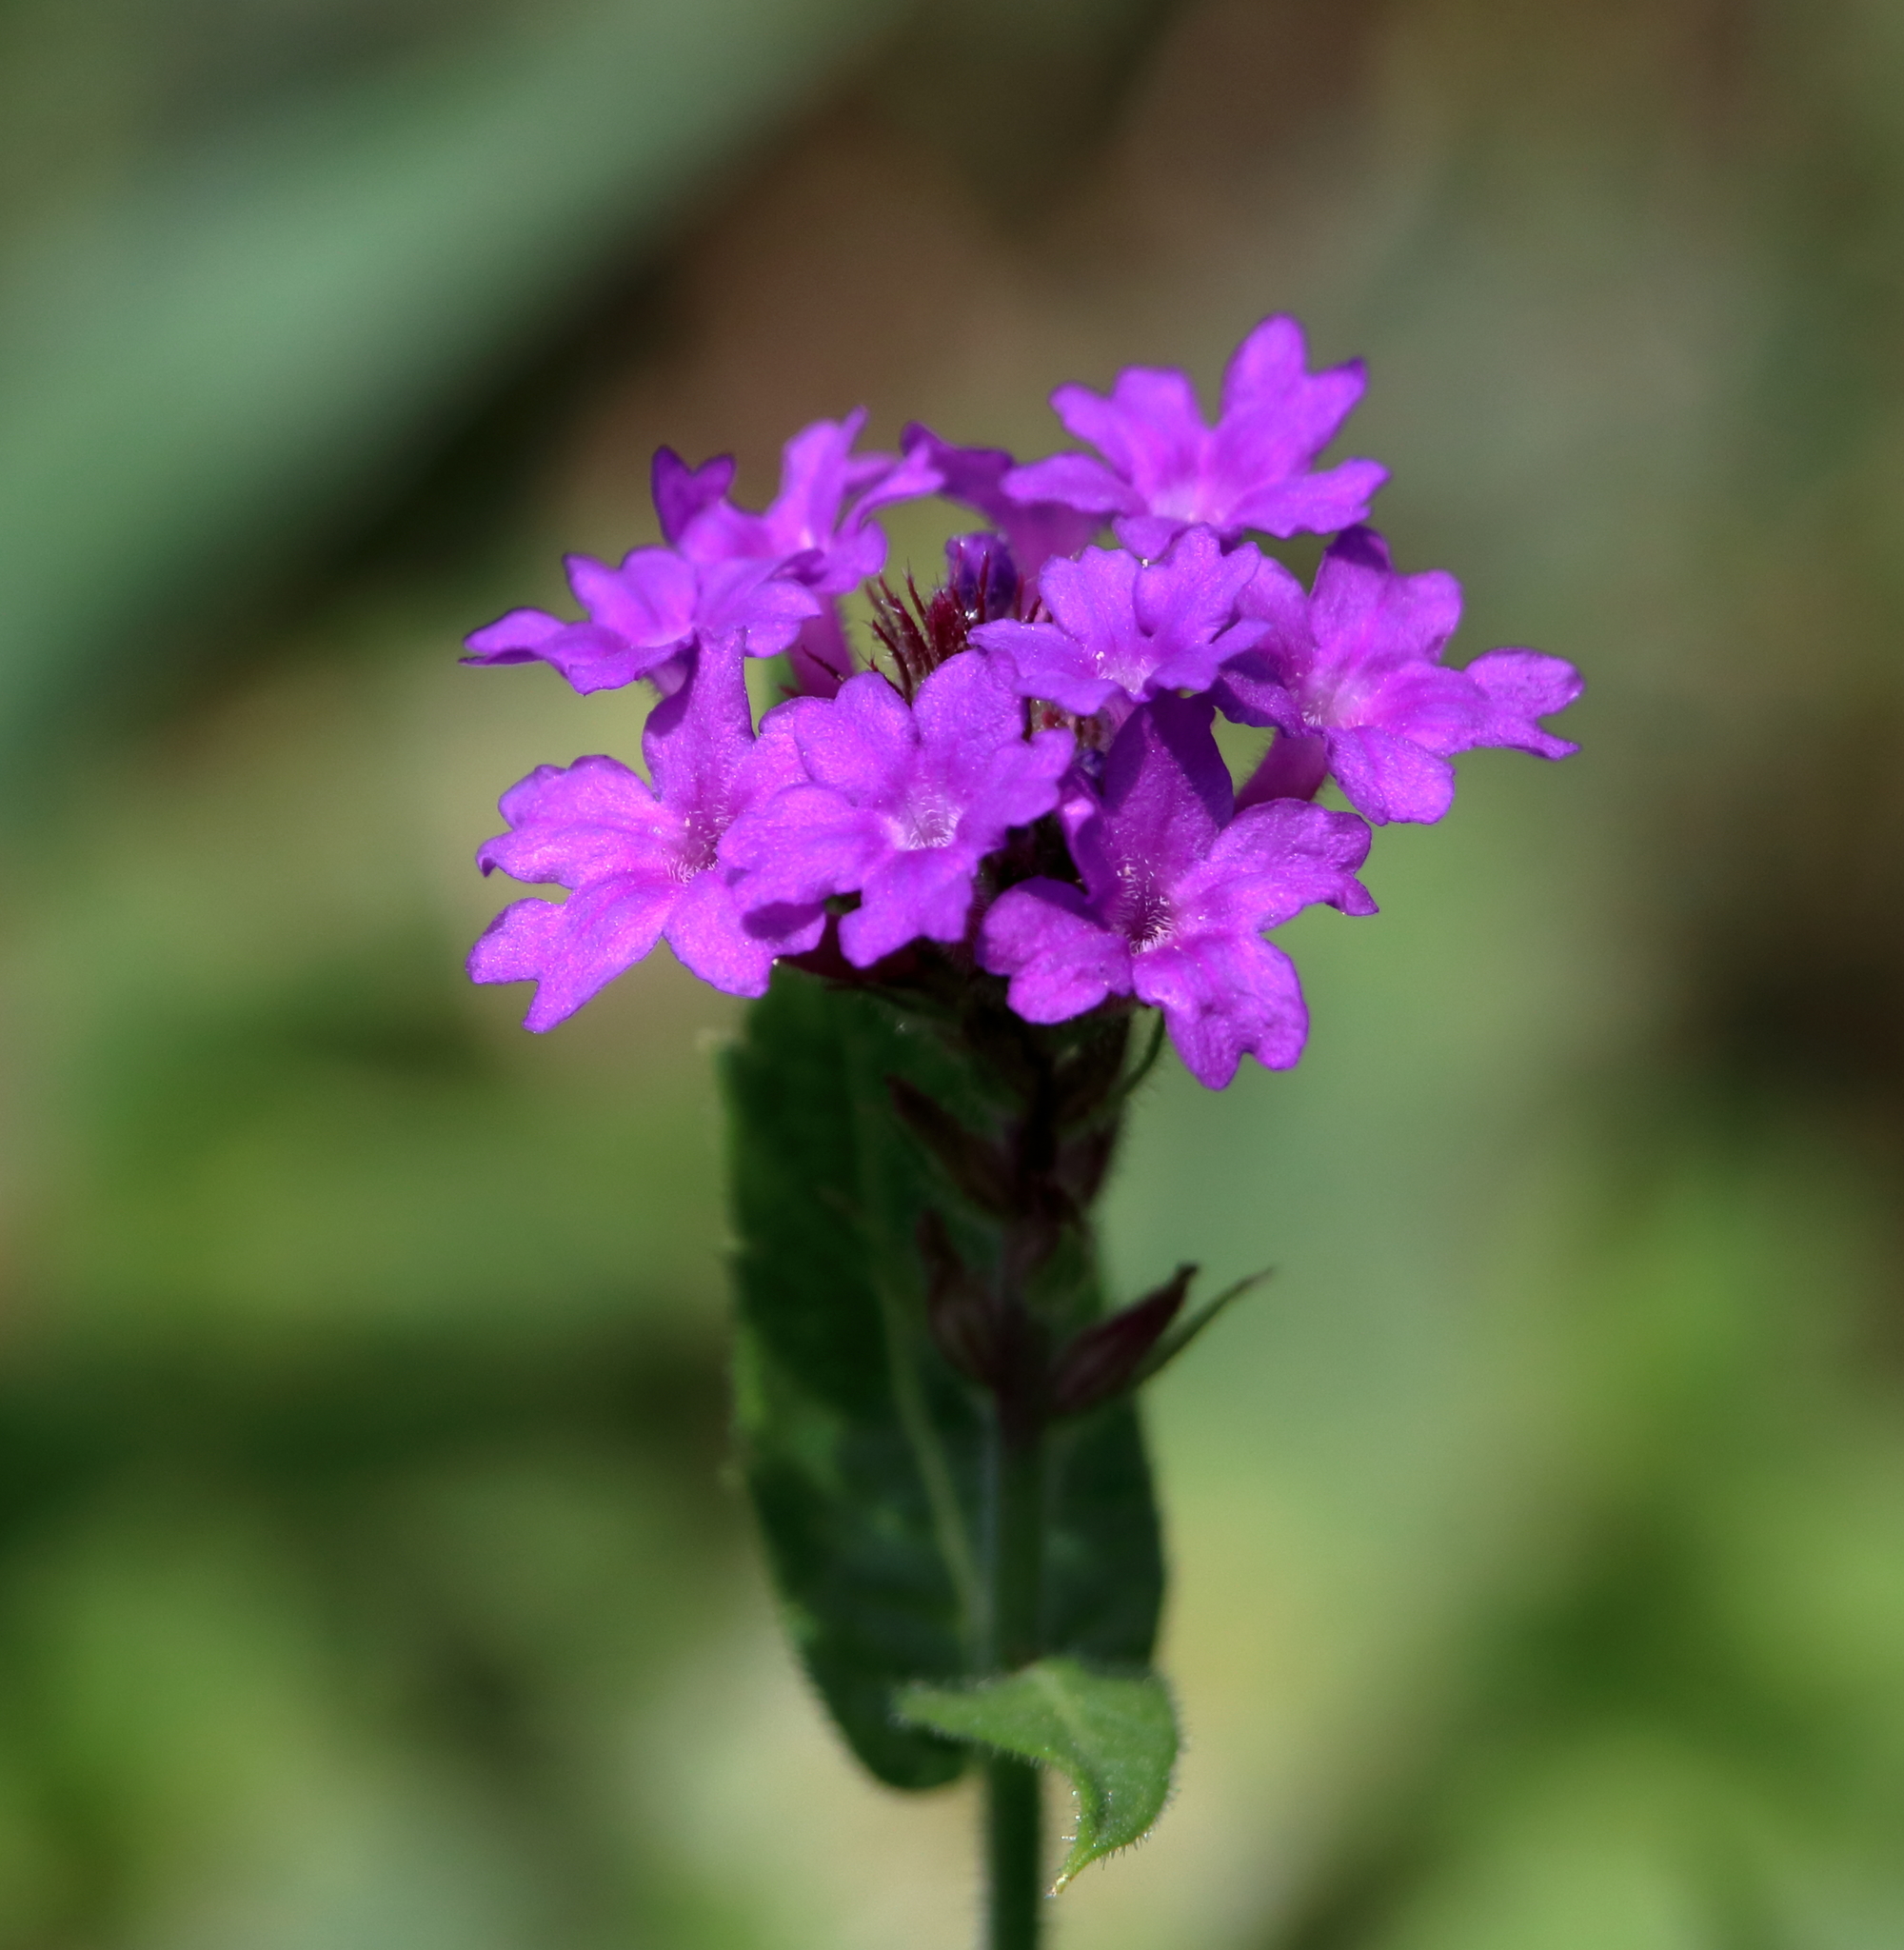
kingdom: Plantae
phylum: Tracheophyta
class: Magnoliopsida
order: Lamiales
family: Verbenaceae
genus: Verbena
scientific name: Verbena rigida
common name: Slender vervain
